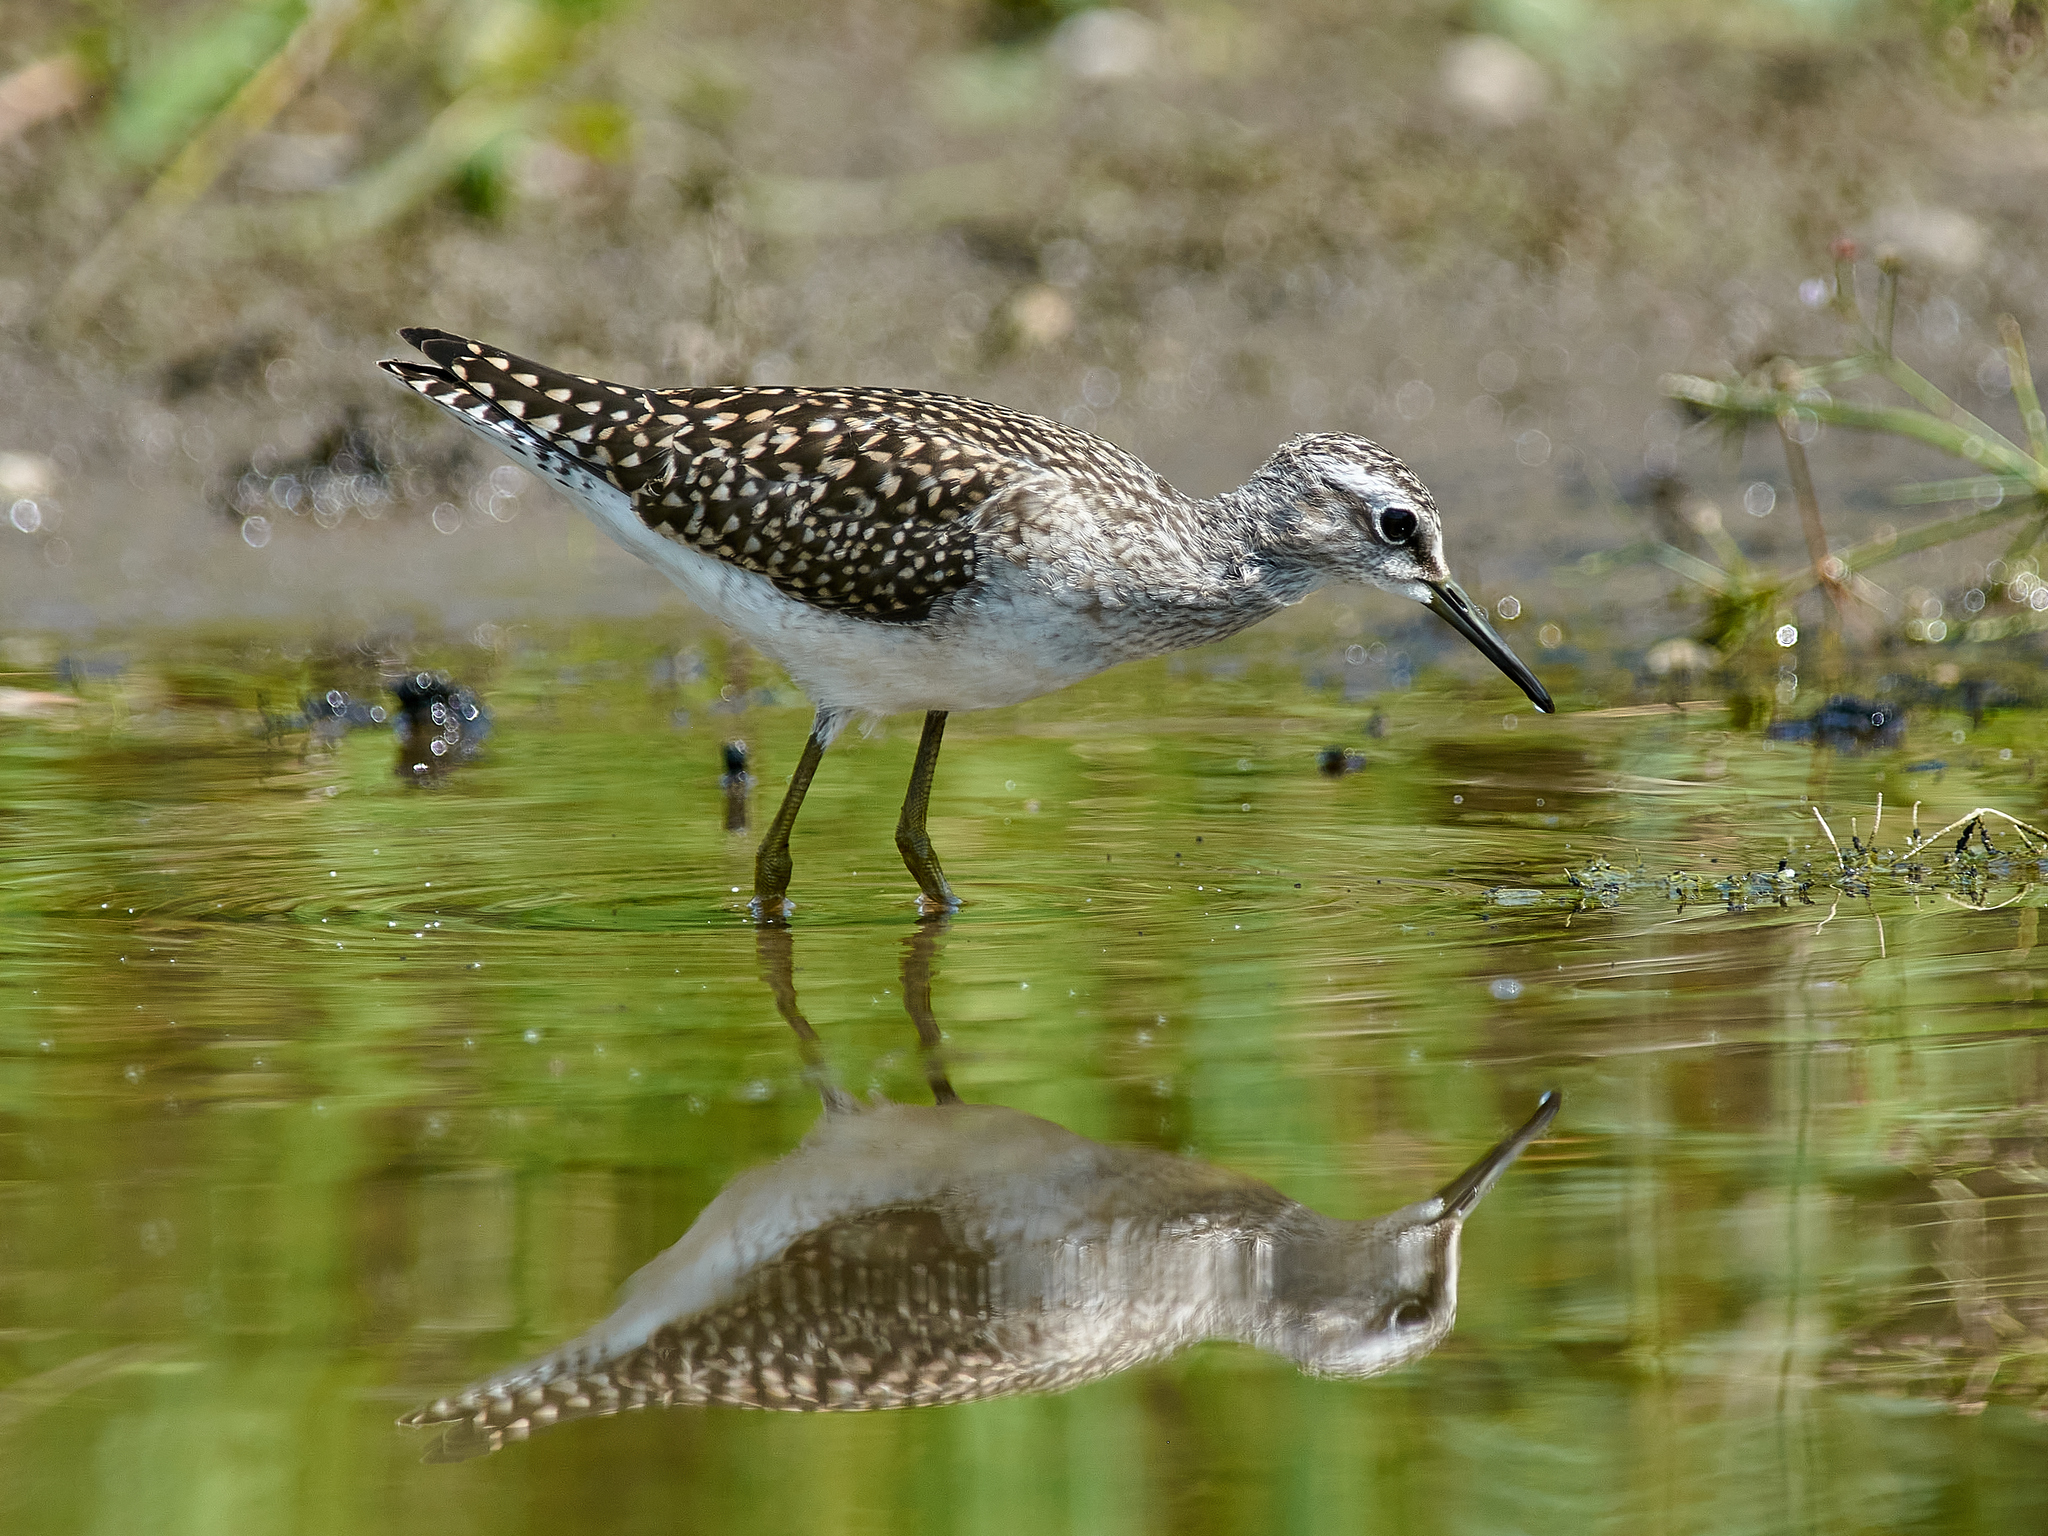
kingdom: Animalia
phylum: Chordata
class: Aves
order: Charadriiformes
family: Scolopacidae
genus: Tringa
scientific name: Tringa glareola
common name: Wood sandpiper
